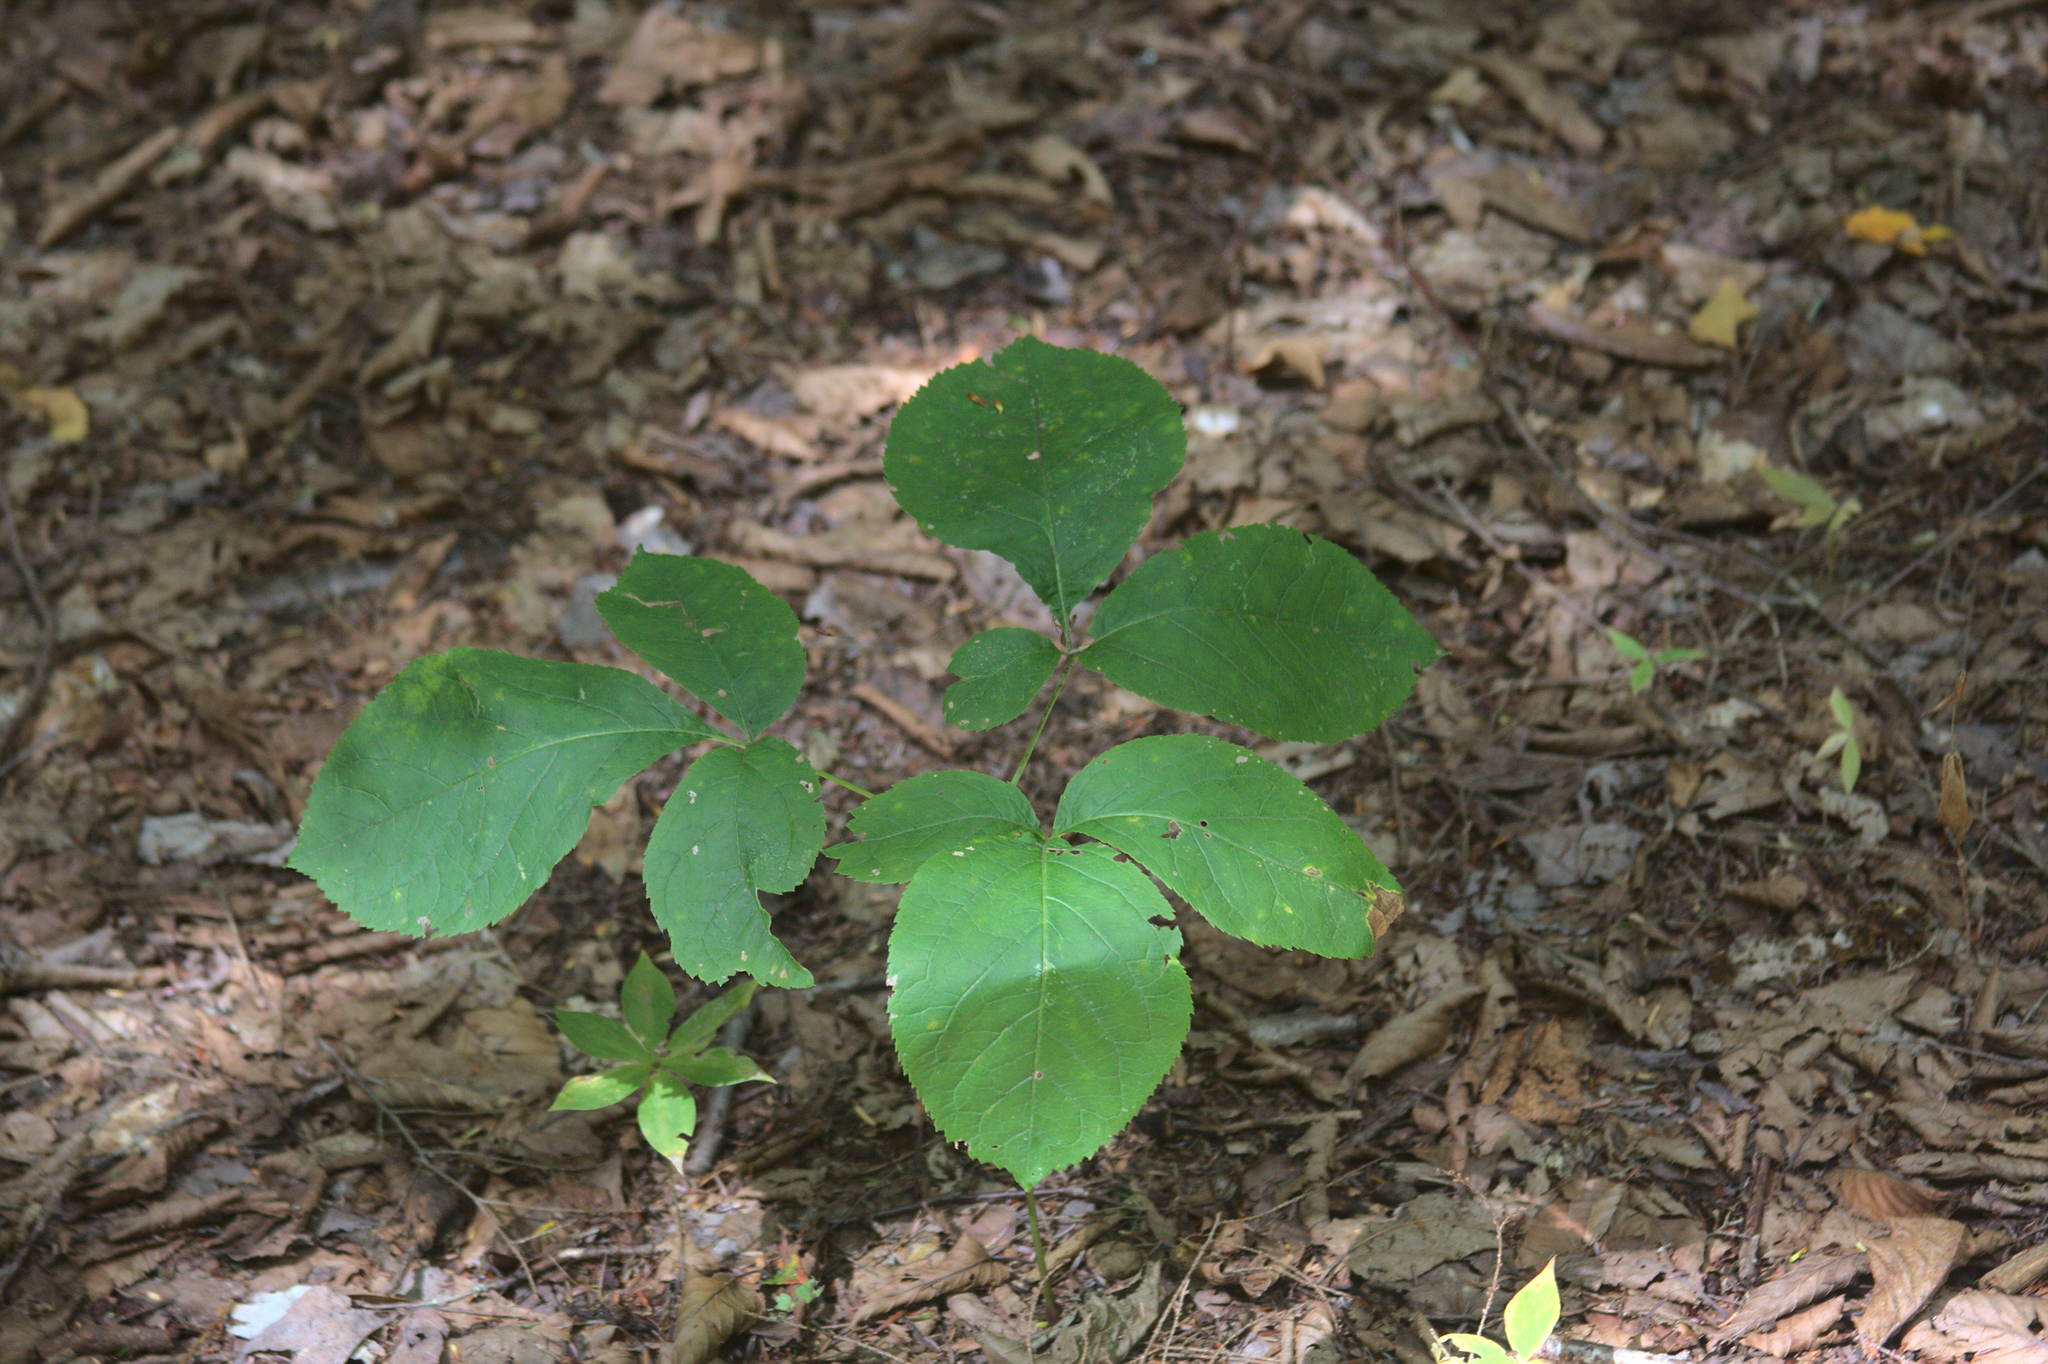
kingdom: Plantae
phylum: Tracheophyta
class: Magnoliopsida
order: Apiales
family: Araliaceae
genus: Aralia
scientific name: Aralia nudicaulis
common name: Wild sarsaparilla
